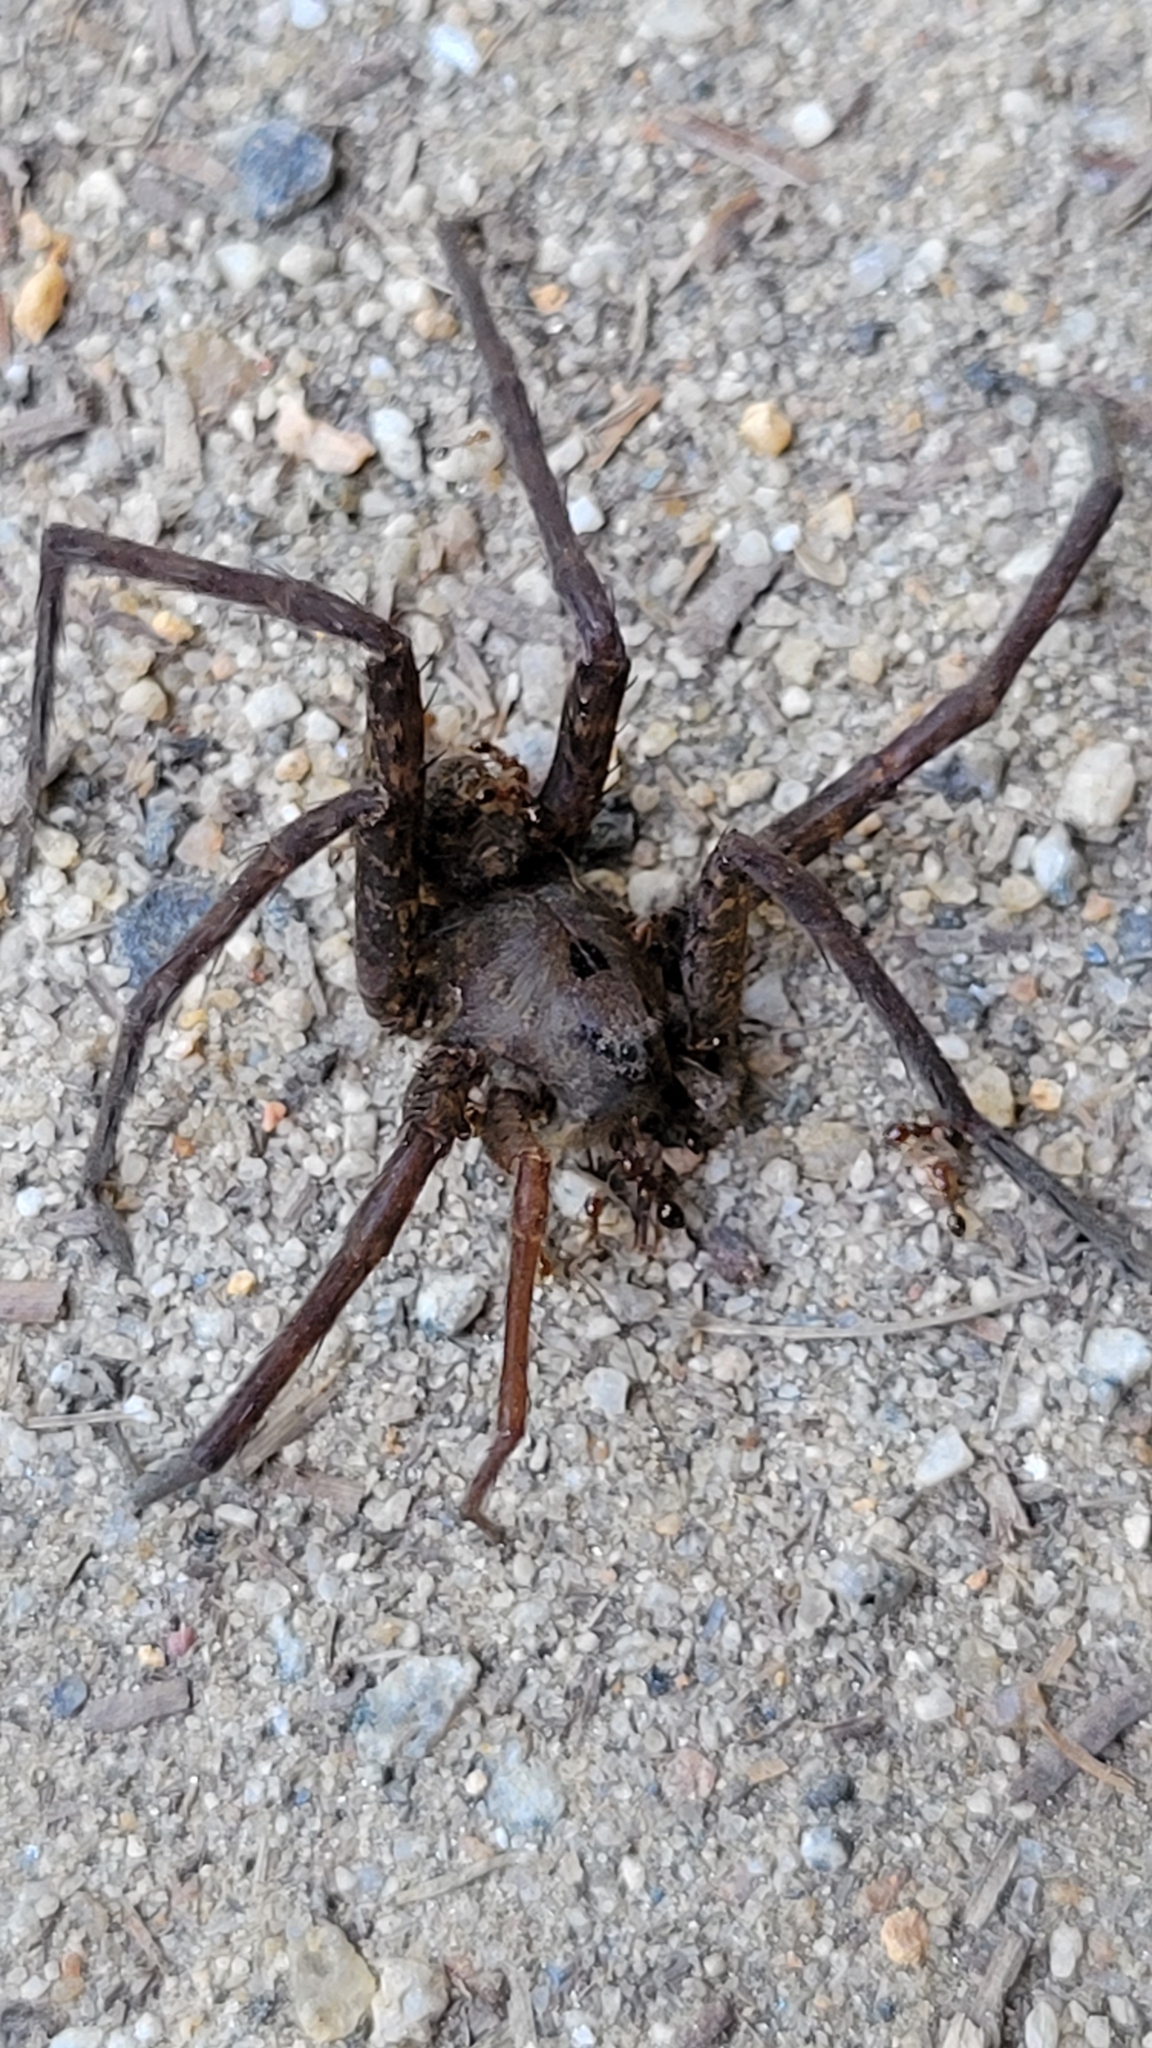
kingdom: Animalia
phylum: Arthropoda
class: Arachnida
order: Araneae
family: Pisauridae
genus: Dolomedes
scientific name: Dolomedes vittatus
